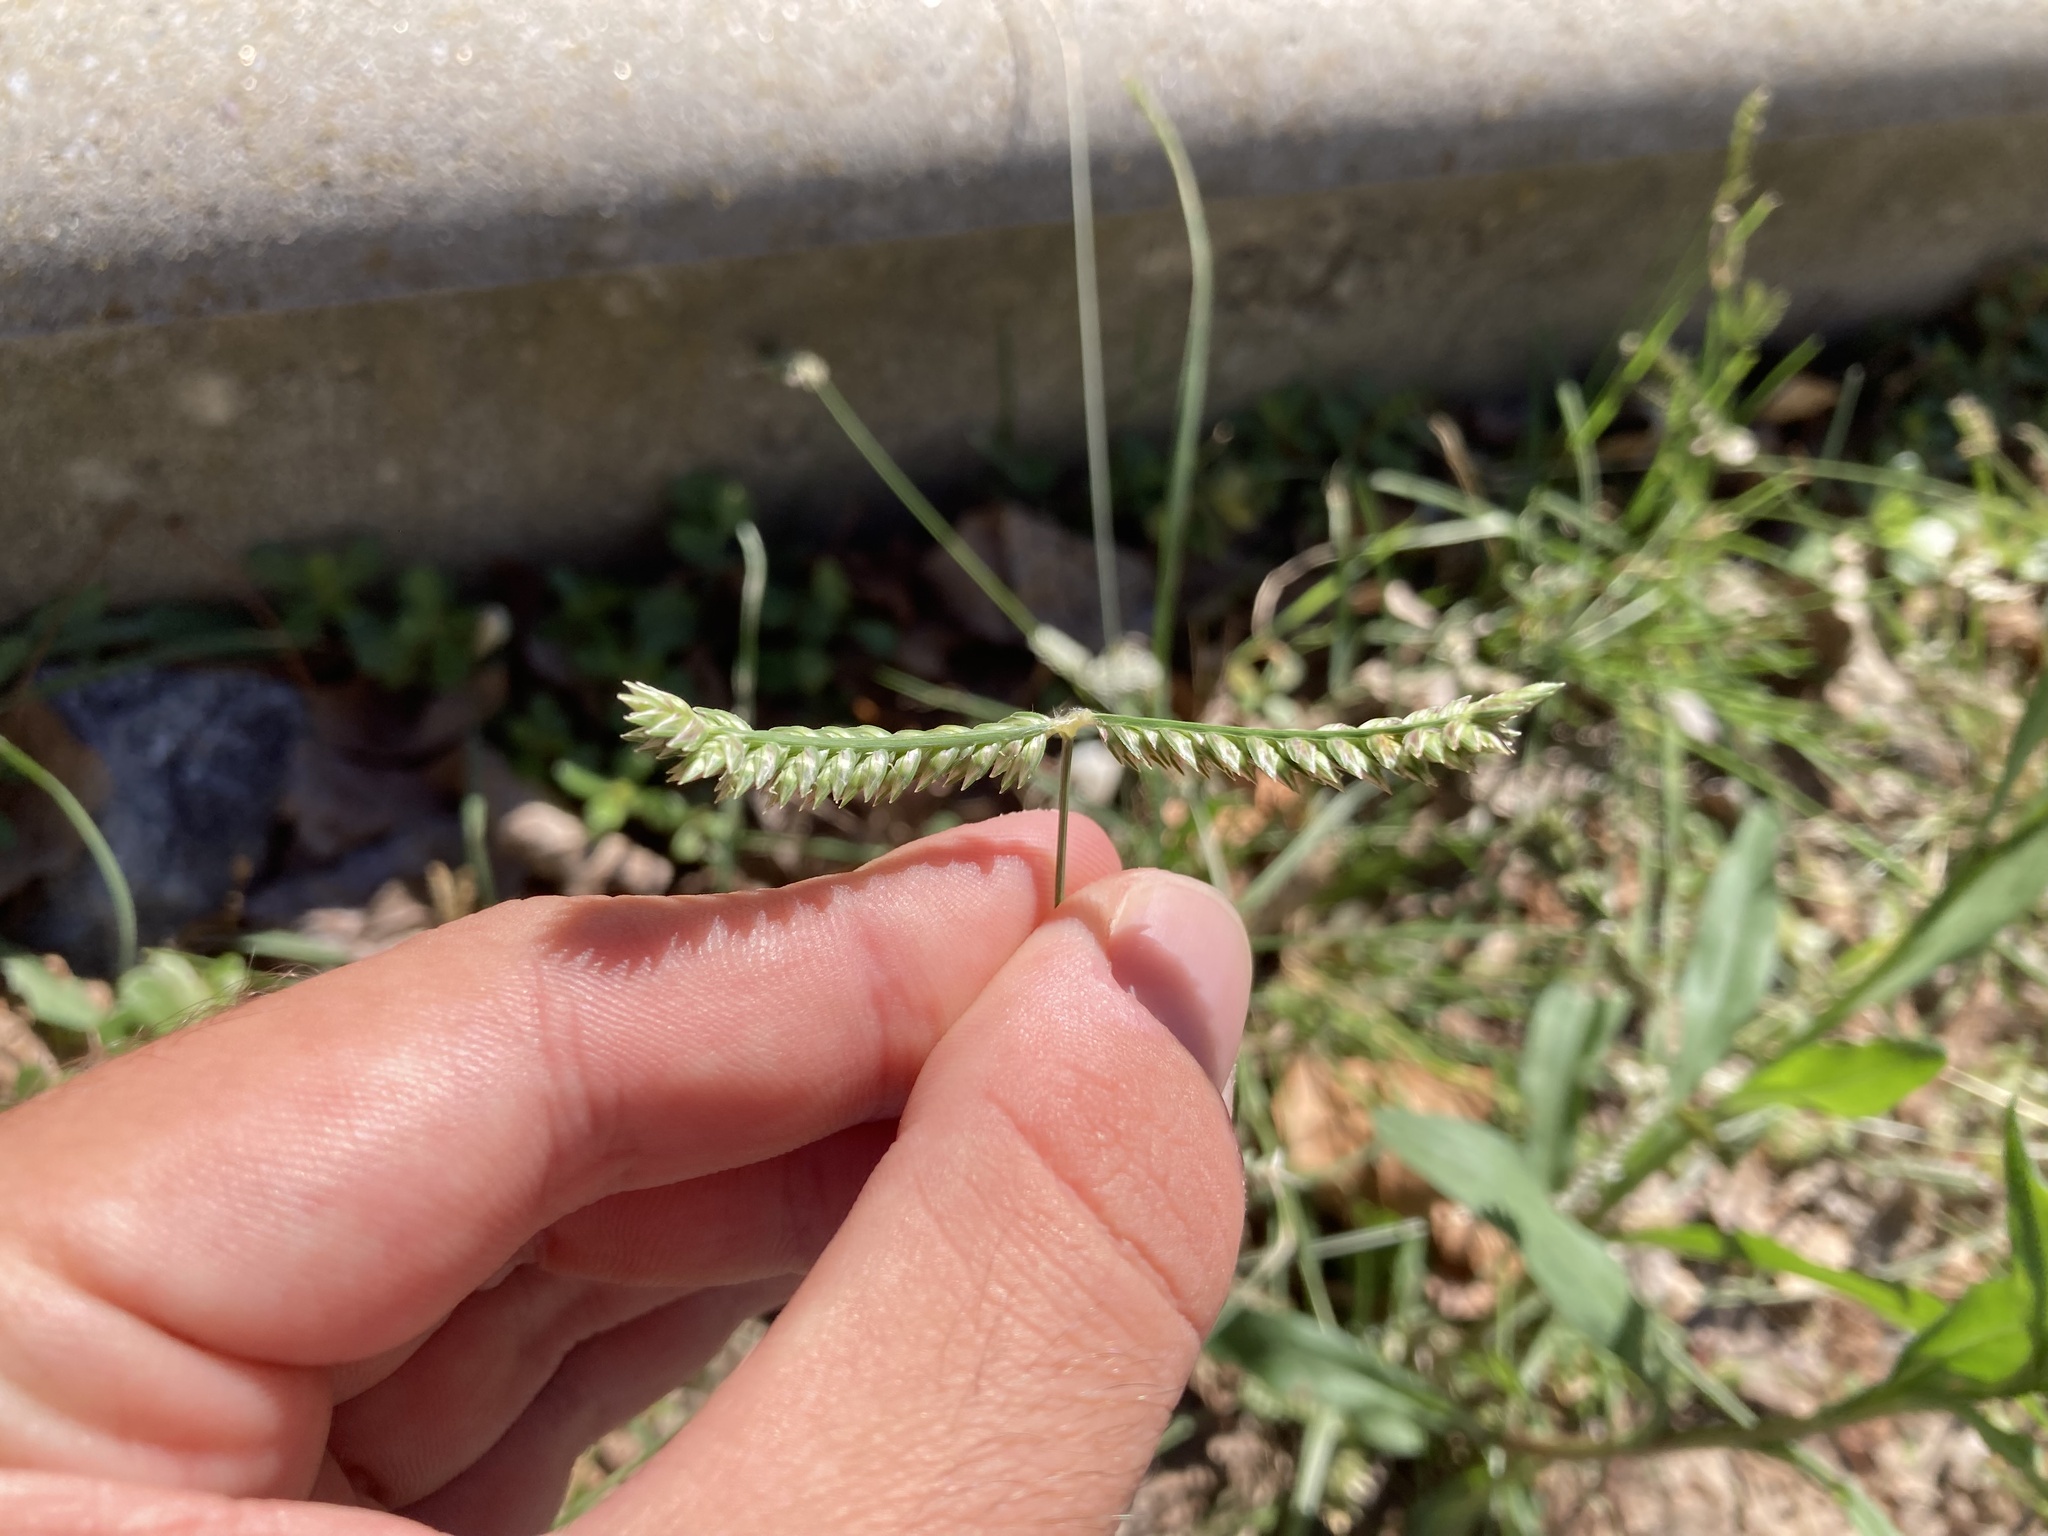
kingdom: Plantae
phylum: Tracheophyta
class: Liliopsida
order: Poales
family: Poaceae
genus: Eleusine
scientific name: Eleusine tristachya
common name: American yard-grass
